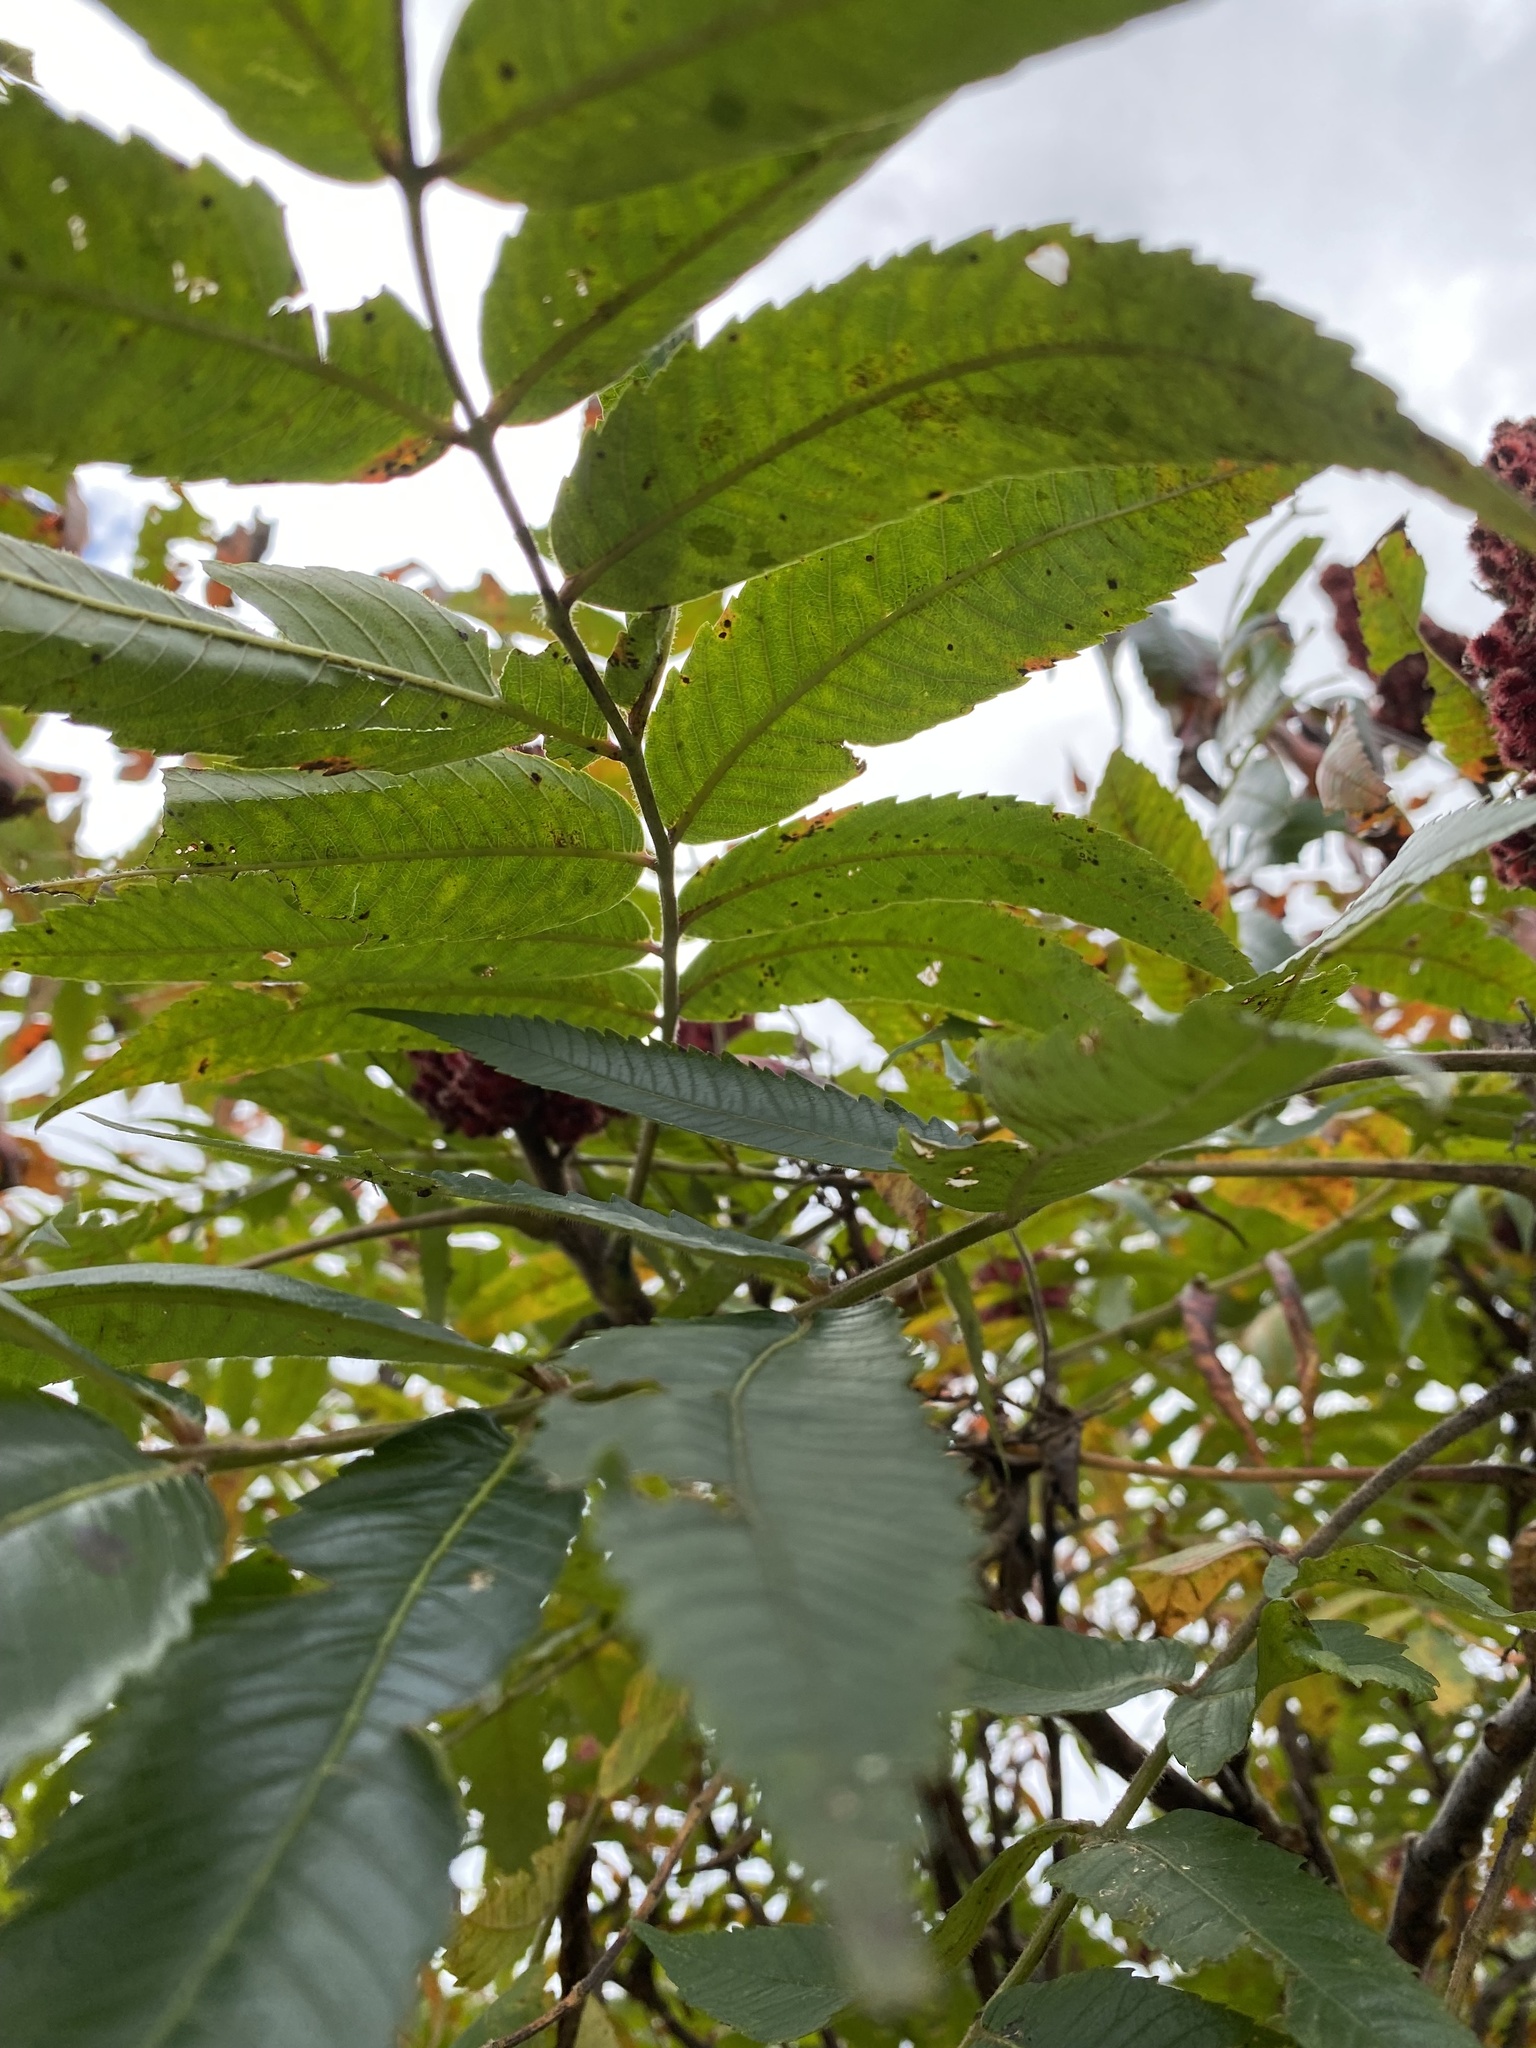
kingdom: Plantae
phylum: Tracheophyta
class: Magnoliopsida
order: Sapindales
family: Anacardiaceae
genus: Rhus
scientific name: Rhus typhina
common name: Staghorn sumac
